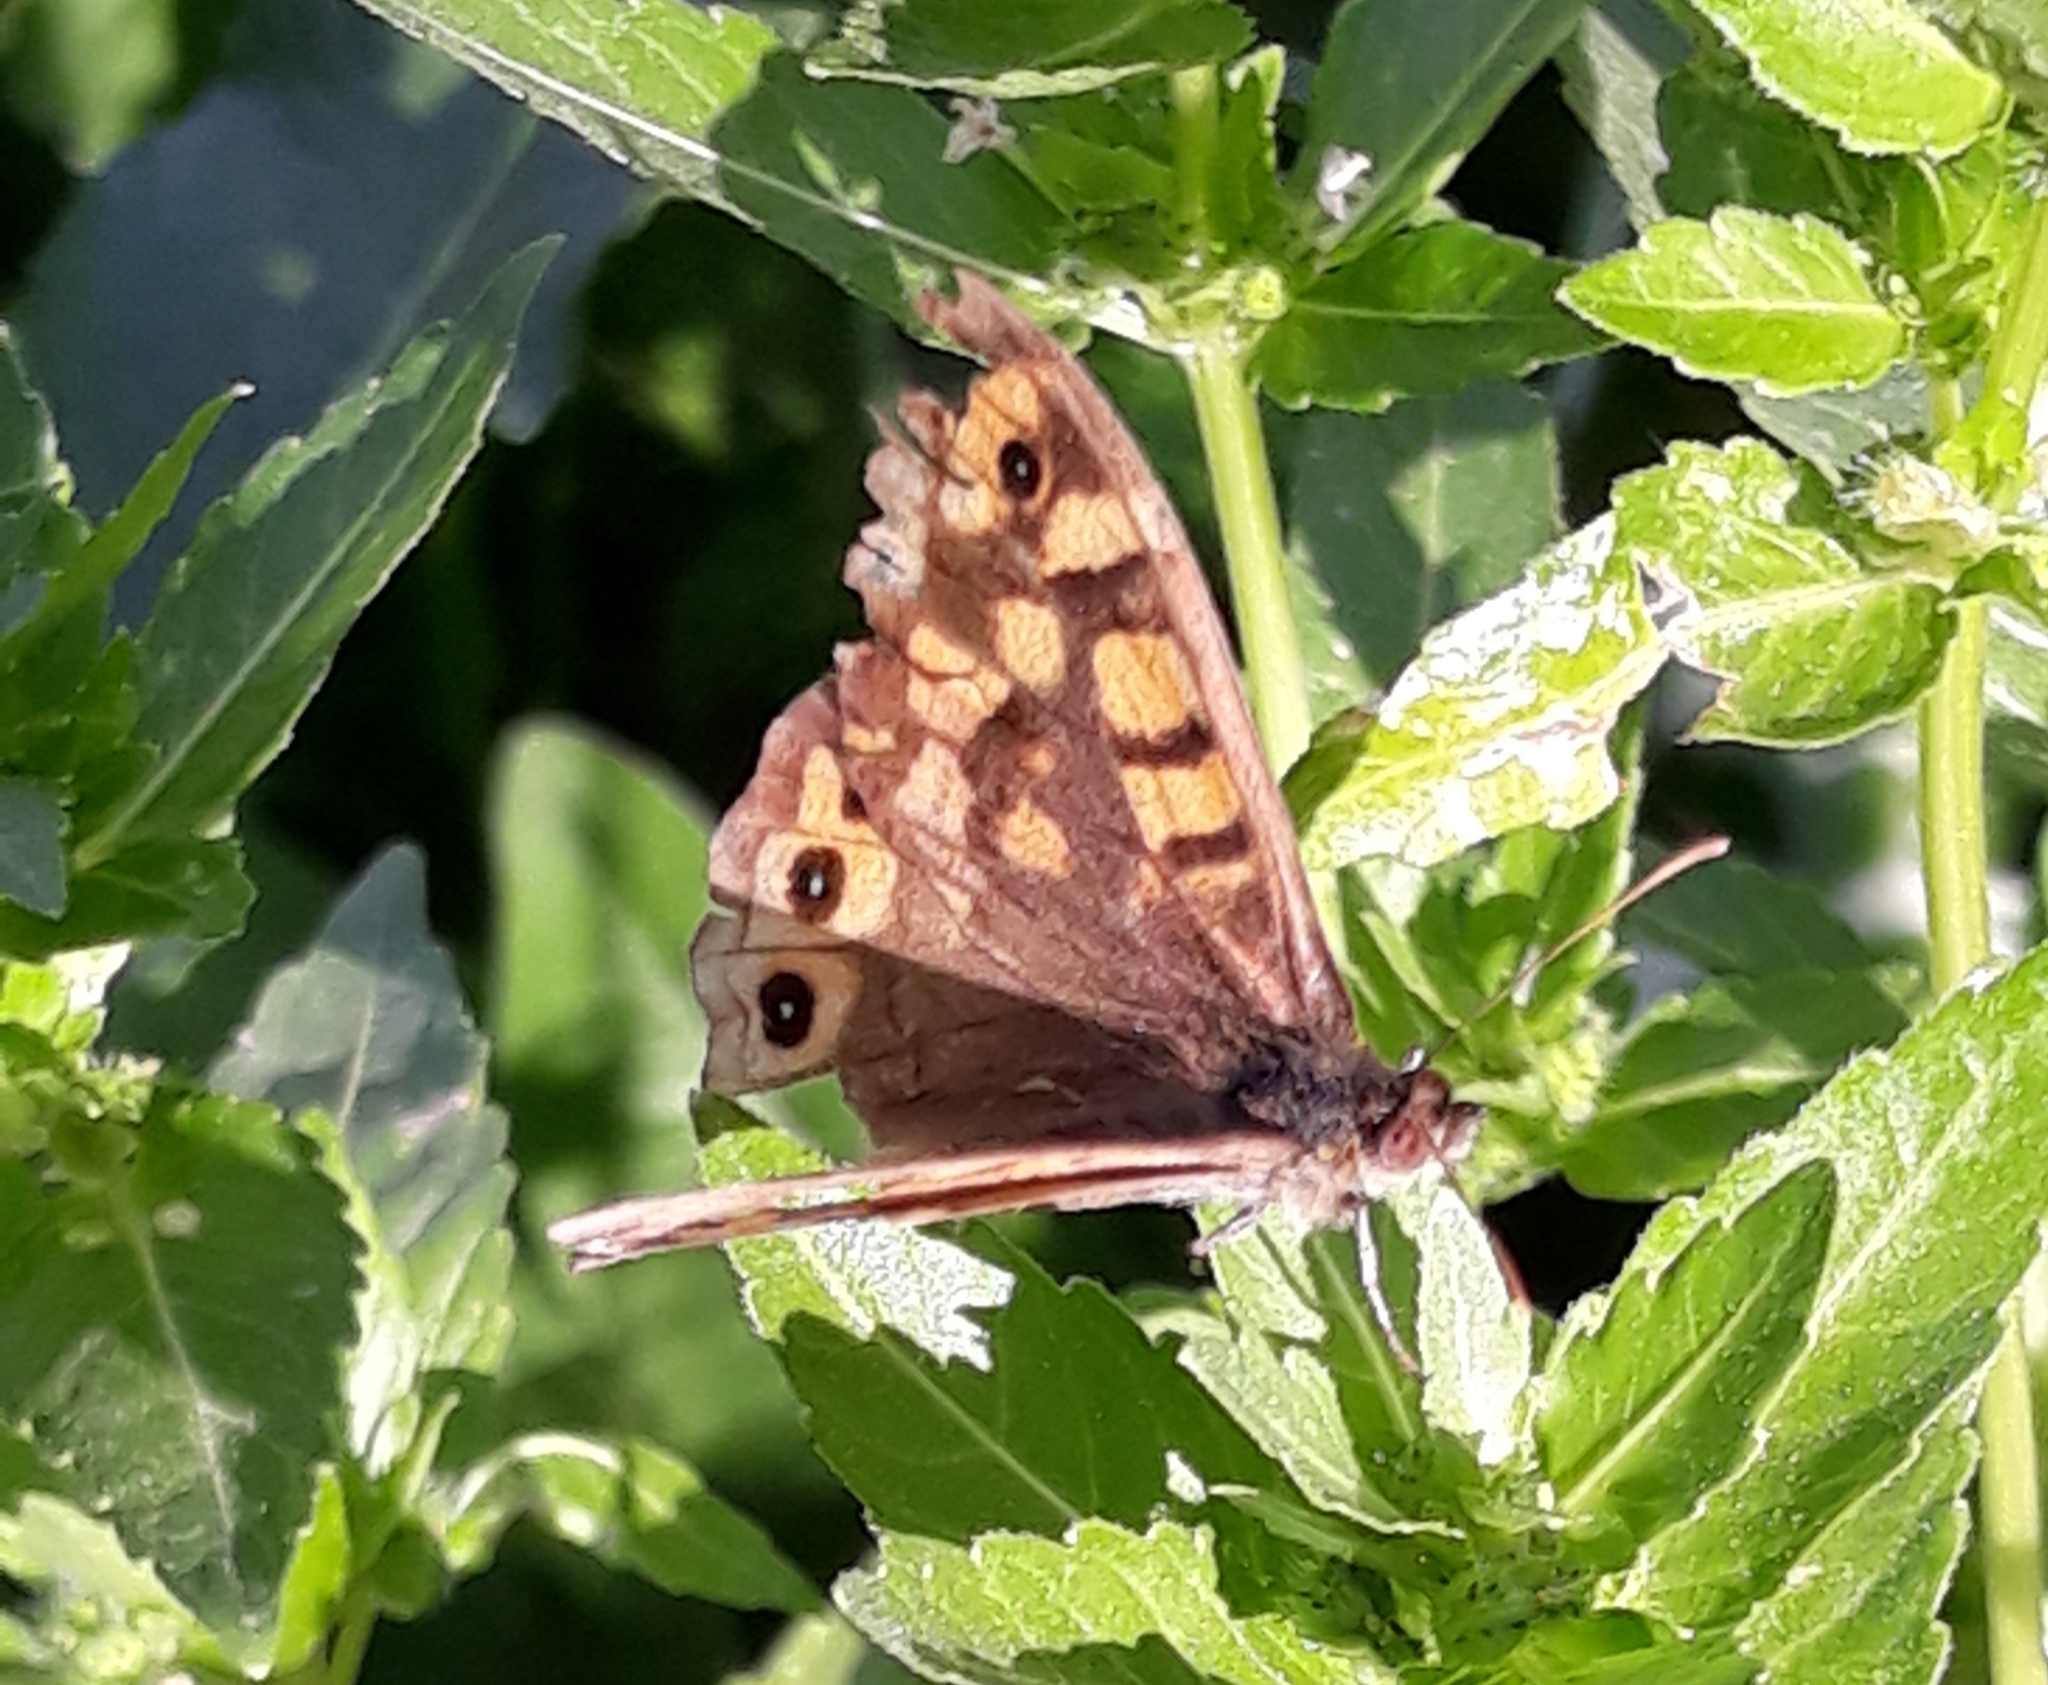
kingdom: Animalia
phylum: Arthropoda
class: Insecta
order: Lepidoptera
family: Nymphalidae
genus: Pararge
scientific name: Pararge aegeria
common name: Speckled wood
